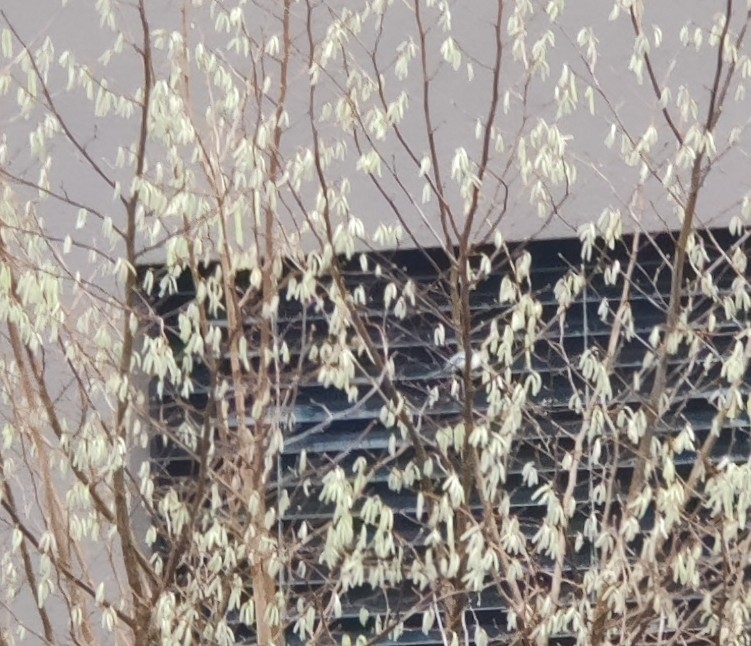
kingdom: Animalia
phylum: Chordata
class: Aves
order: Passeriformes
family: Paridae
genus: Parus
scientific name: Parus major
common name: Great tit
